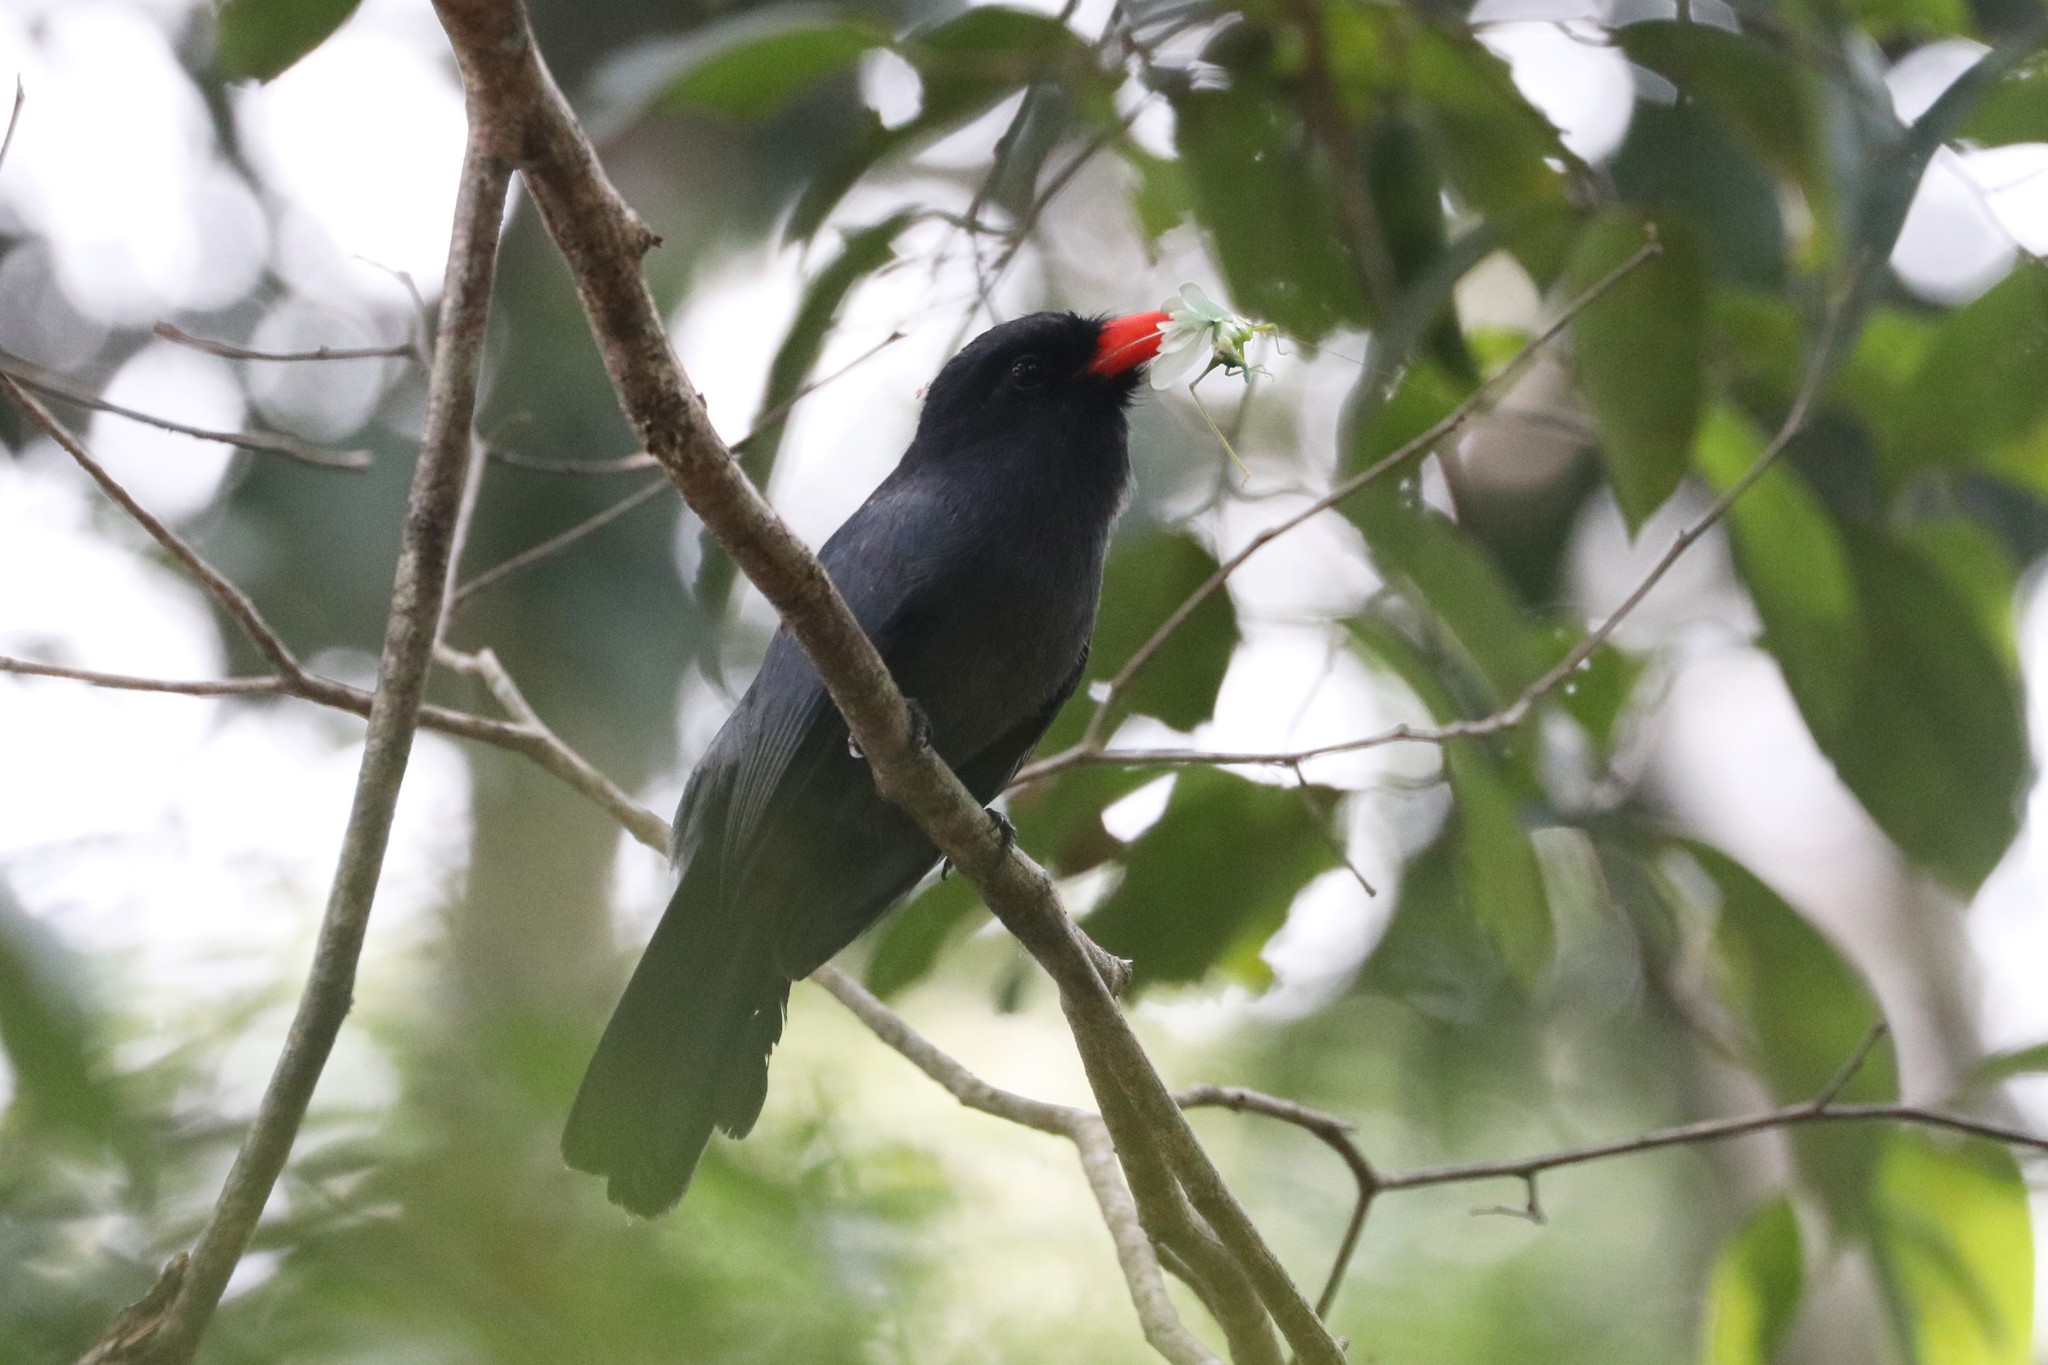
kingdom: Animalia
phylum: Chordata
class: Aves
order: Piciformes
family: Bucconidae
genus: Monasa
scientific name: Monasa nigrifrons
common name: Black-fronted nunbird
